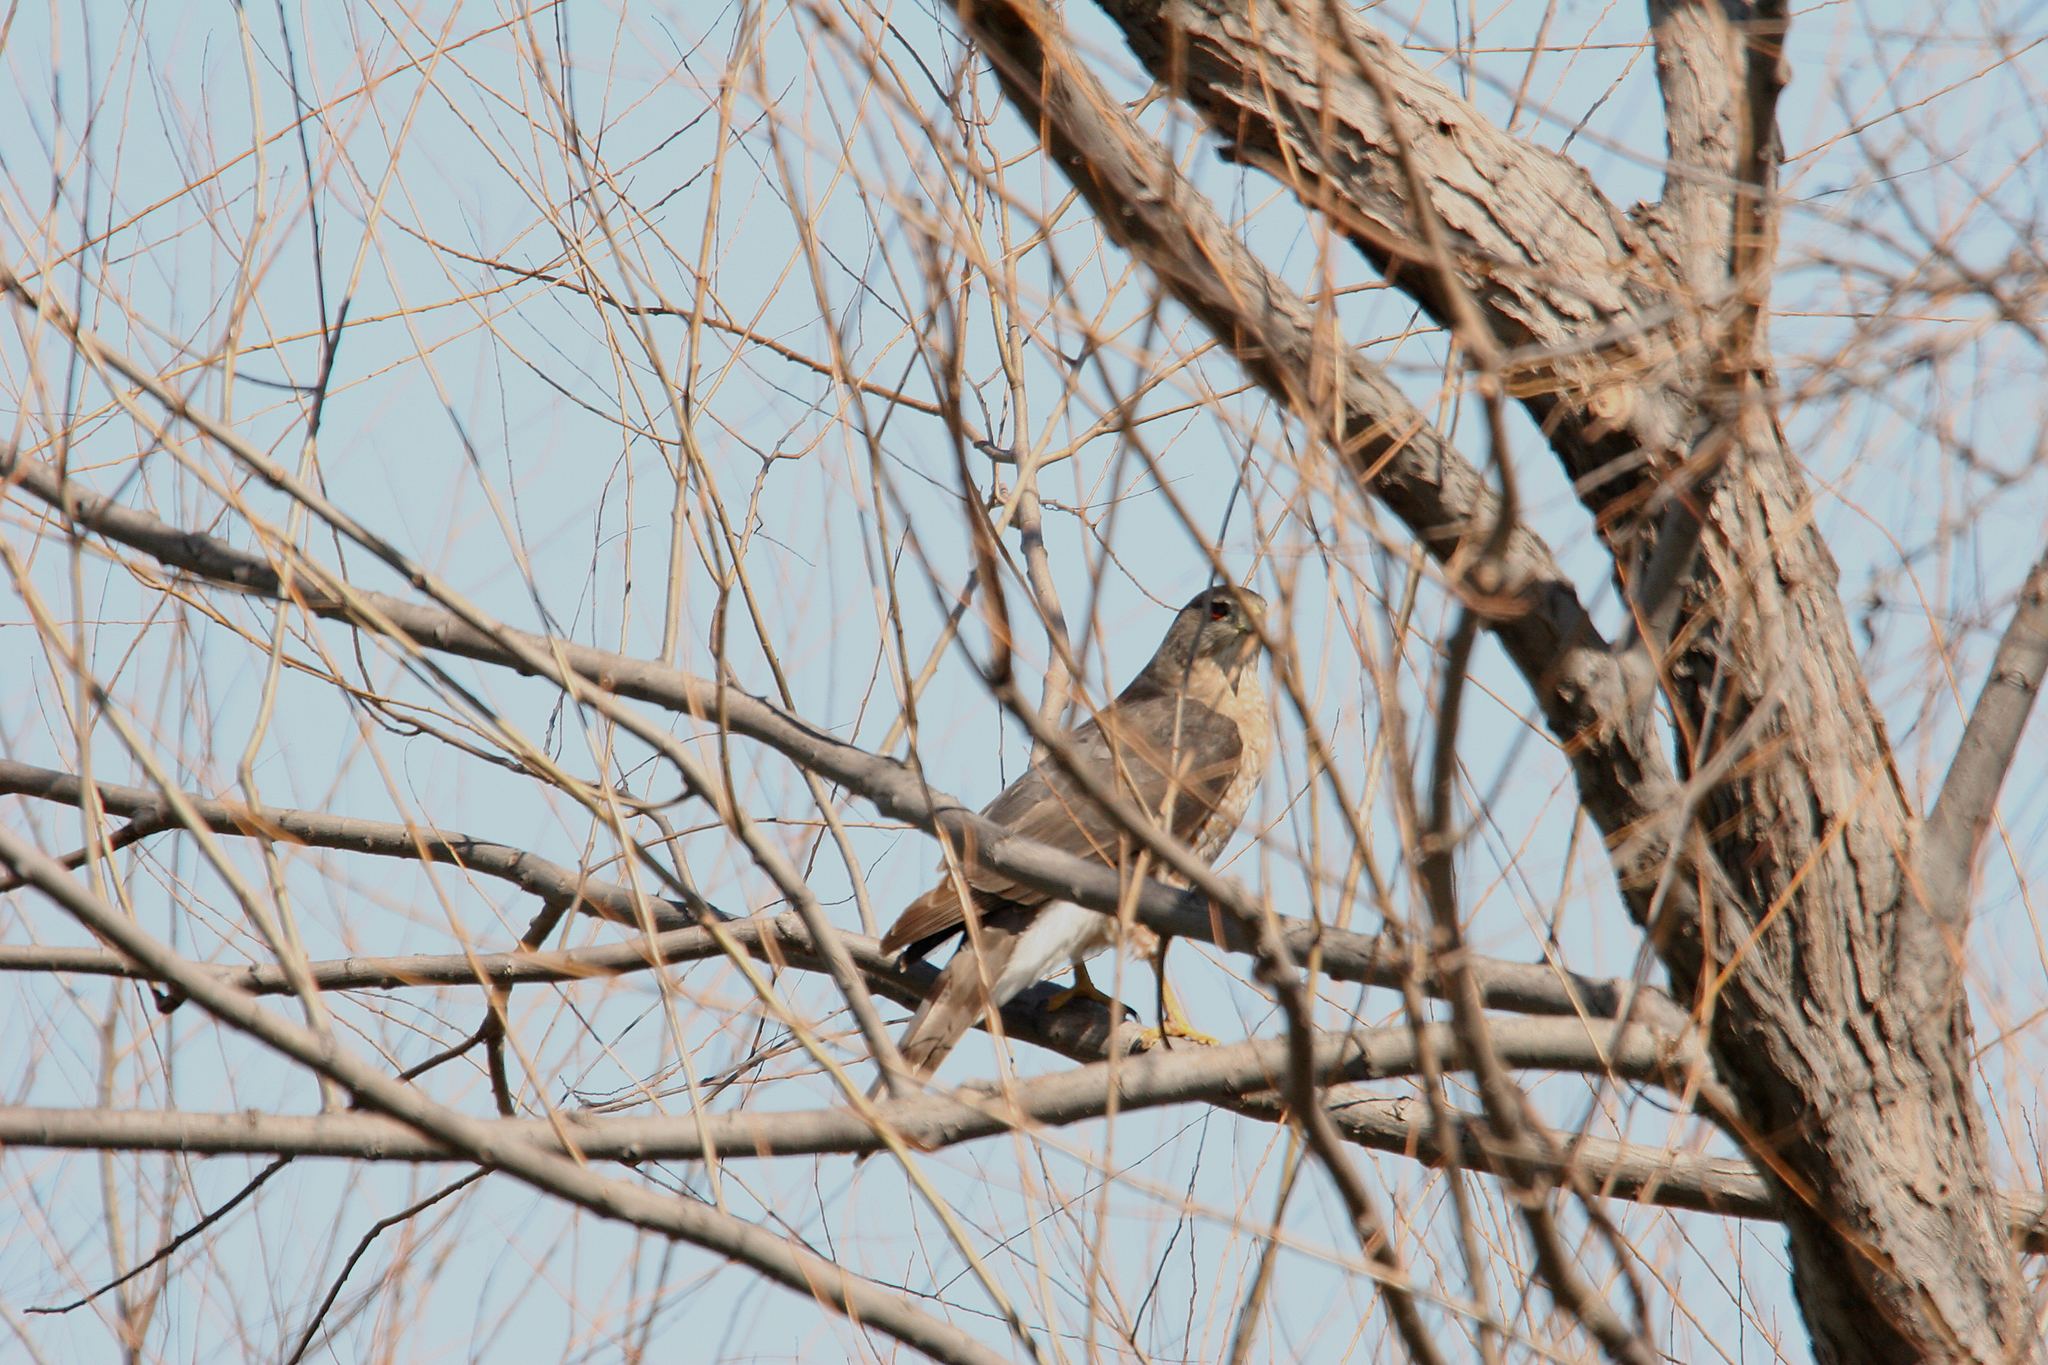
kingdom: Animalia
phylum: Chordata
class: Aves
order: Accipitriformes
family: Accipitridae
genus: Accipiter
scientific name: Accipiter cooperii
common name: Cooper's hawk
